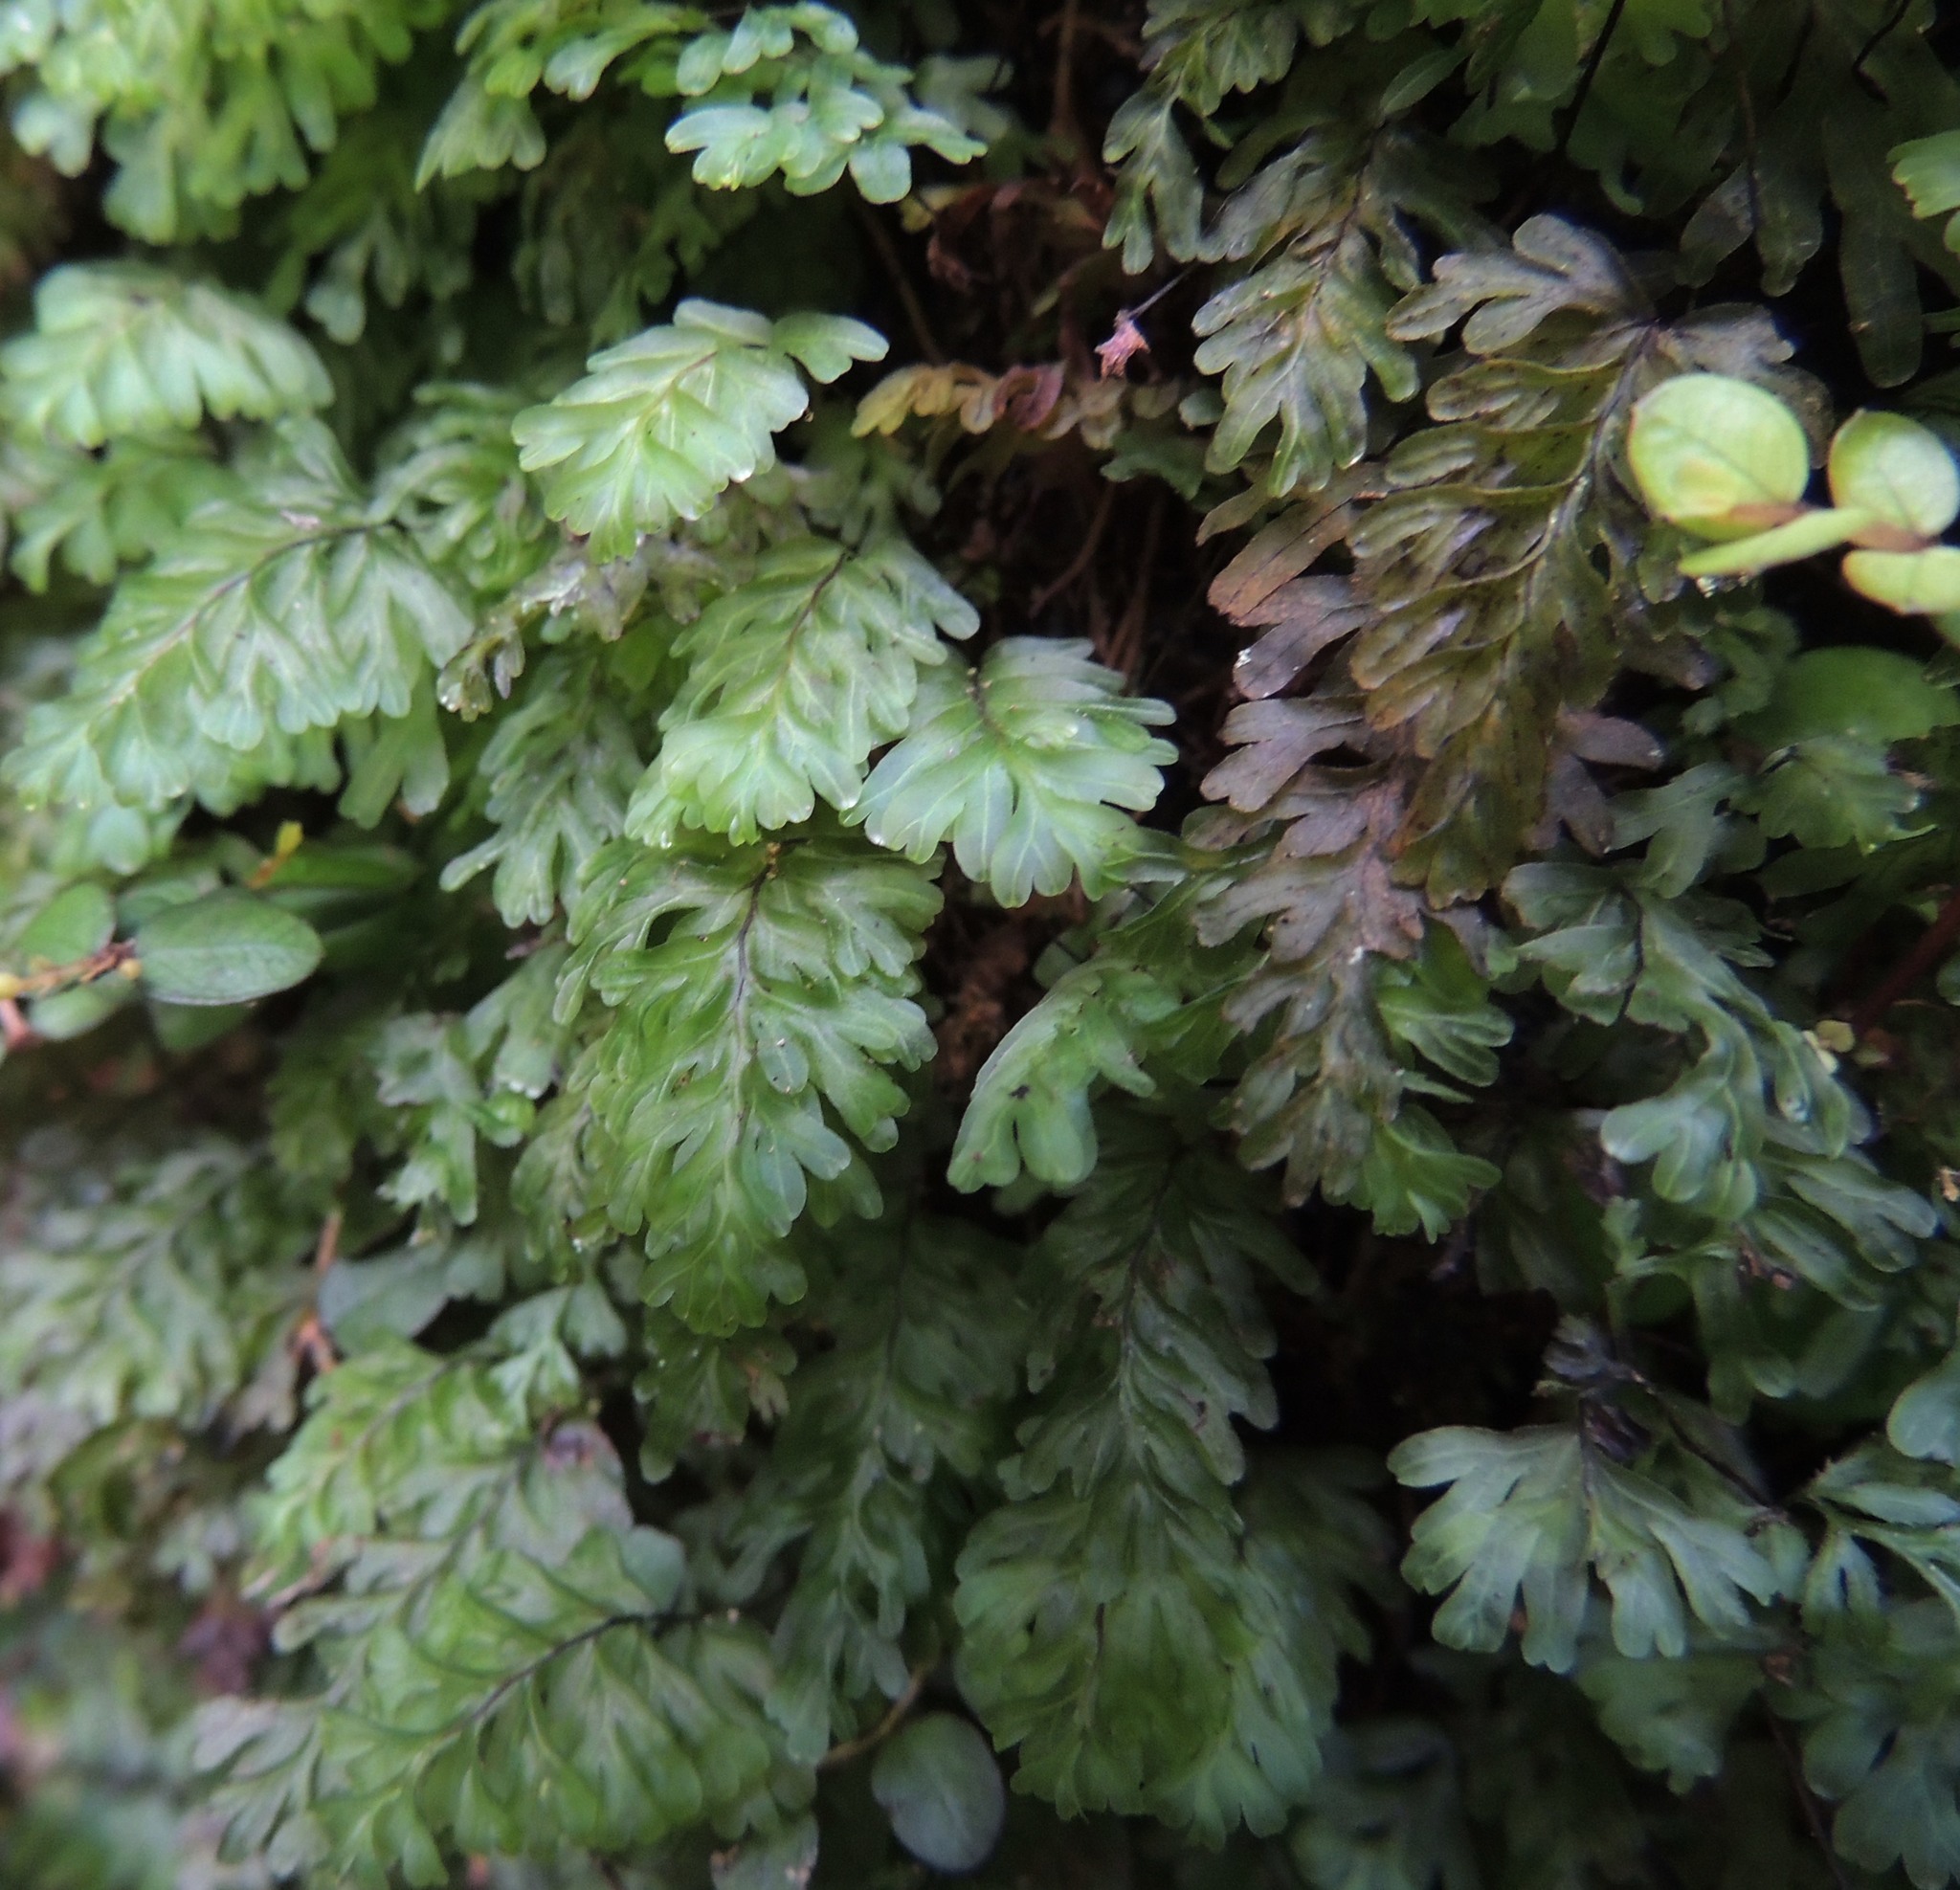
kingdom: Plantae
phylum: Tracheophyta
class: Polypodiopsida
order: Hymenophyllales
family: Hymenophyllaceae
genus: Hymenophyllum
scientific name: Hymenophyllum rarum
